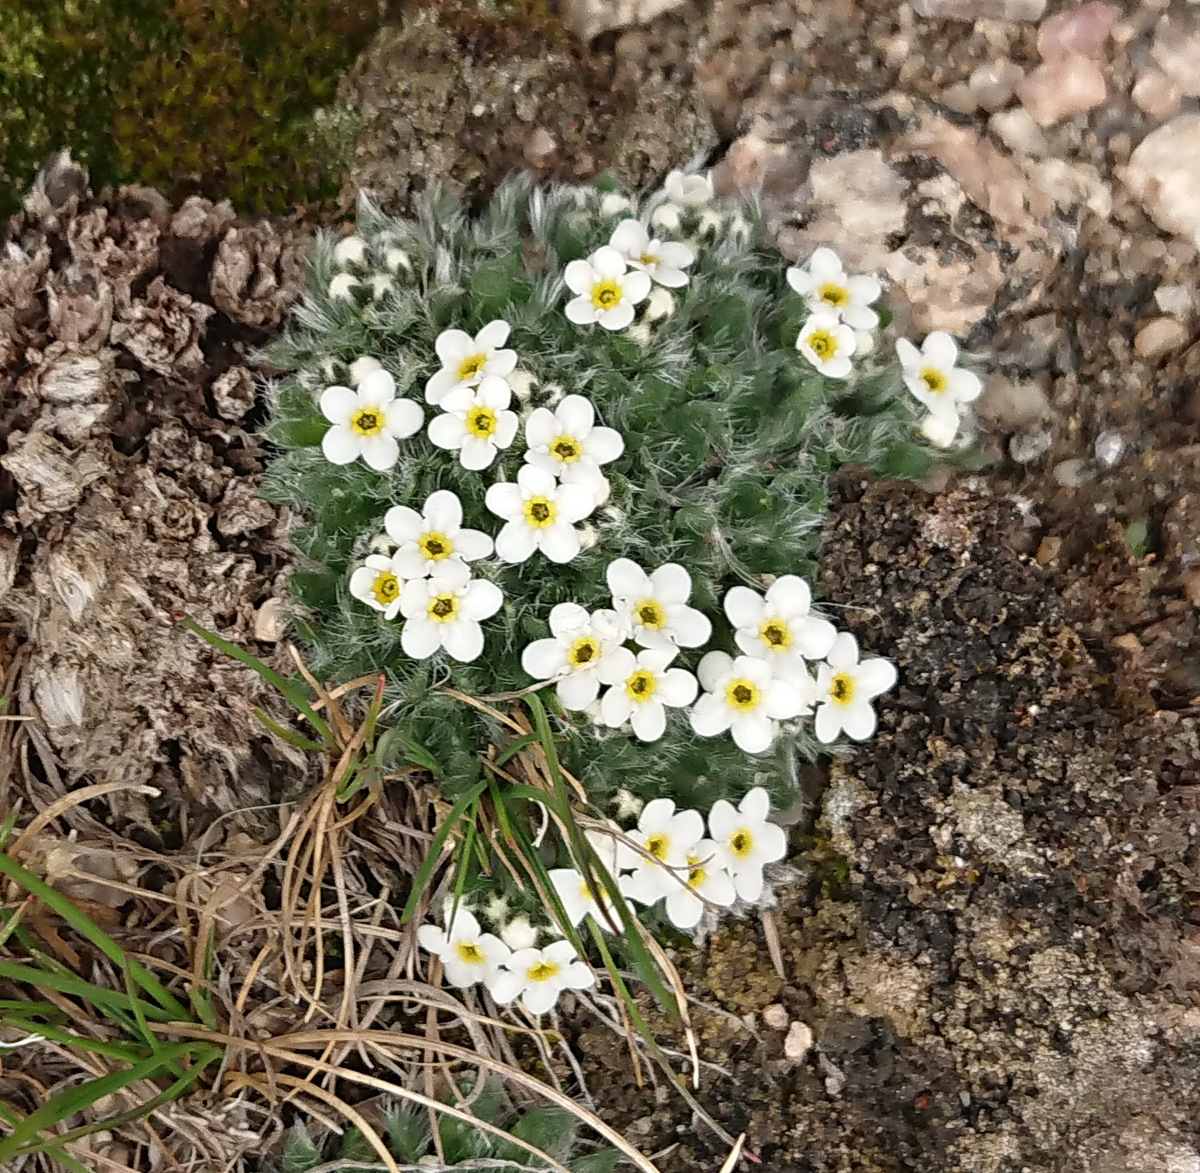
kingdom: Plantae
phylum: Tracheophyta
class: Magnoliopsida
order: Boraginales
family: Boraginaceae
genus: Eritrichium
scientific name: Eritrichium argenteum
